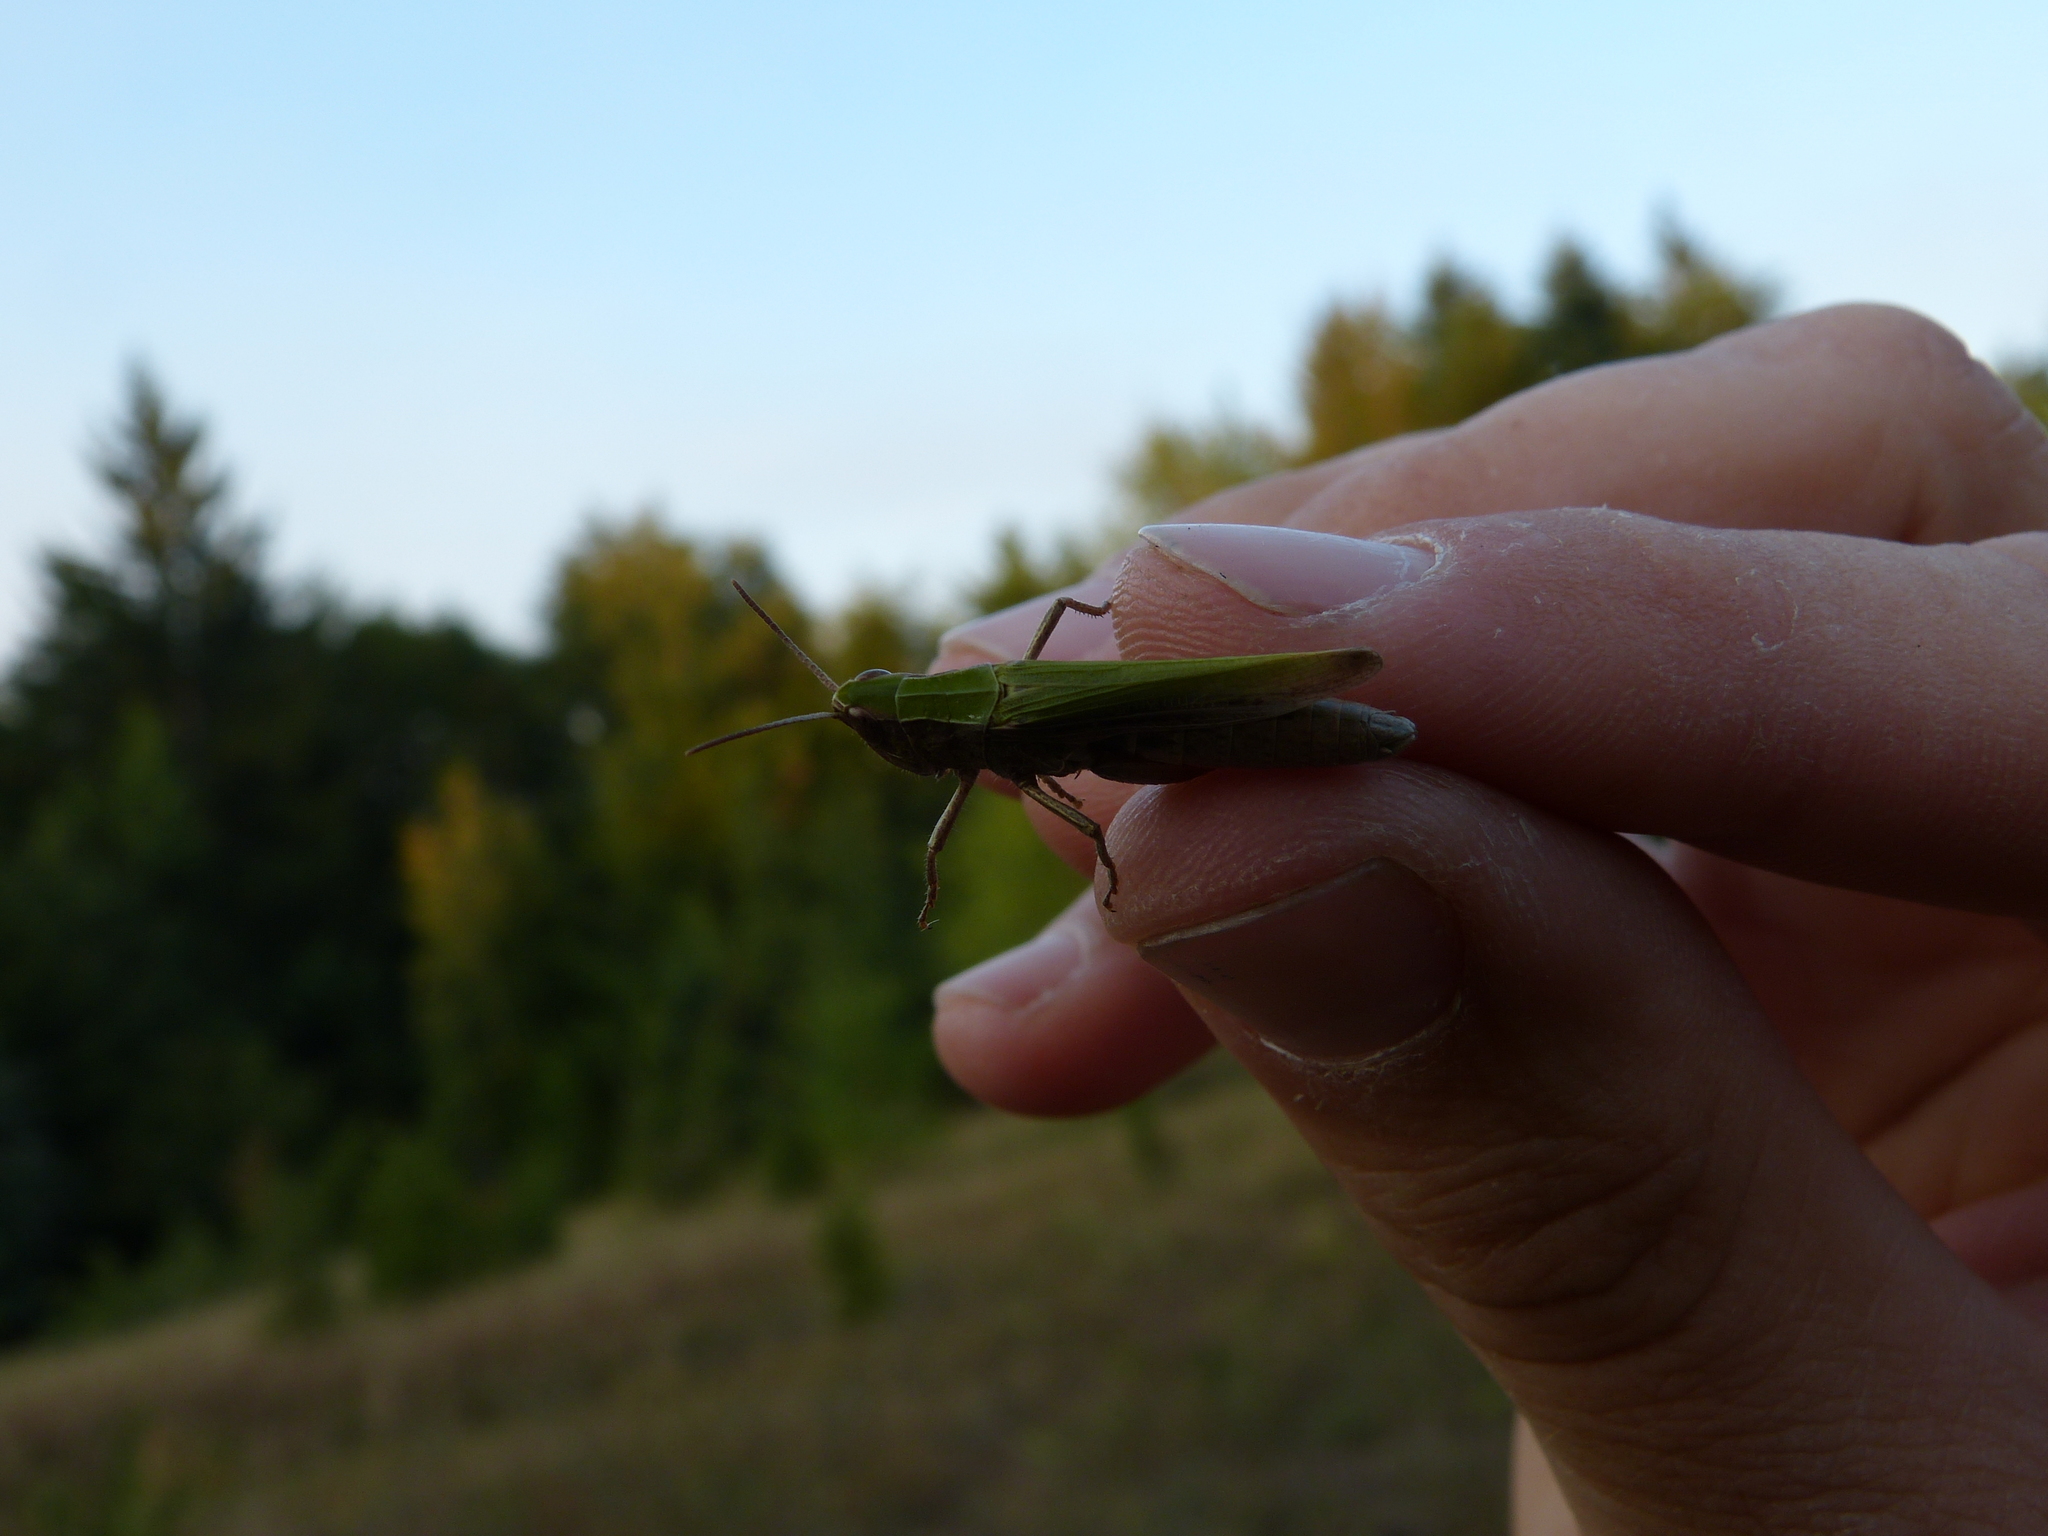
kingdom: Animalia
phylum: Arthropoda
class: Insecta
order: Orthoptera
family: Acrididae
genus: Chorthippus
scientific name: Chorthippus dorsatus
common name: Steppe grasshopper
